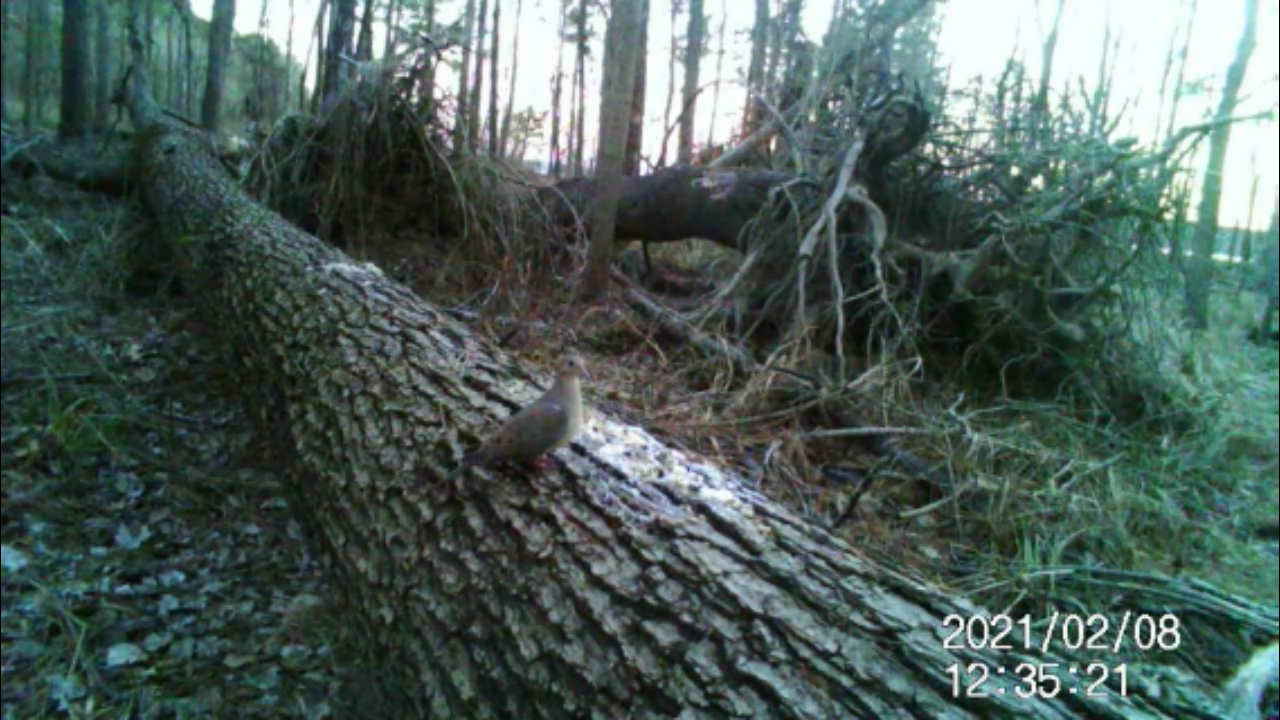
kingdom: Animalia
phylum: Chordata
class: Aves
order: Columbiformes
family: Columbidae
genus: Zenaida
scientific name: Zenaida macroura
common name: Mourning dove
